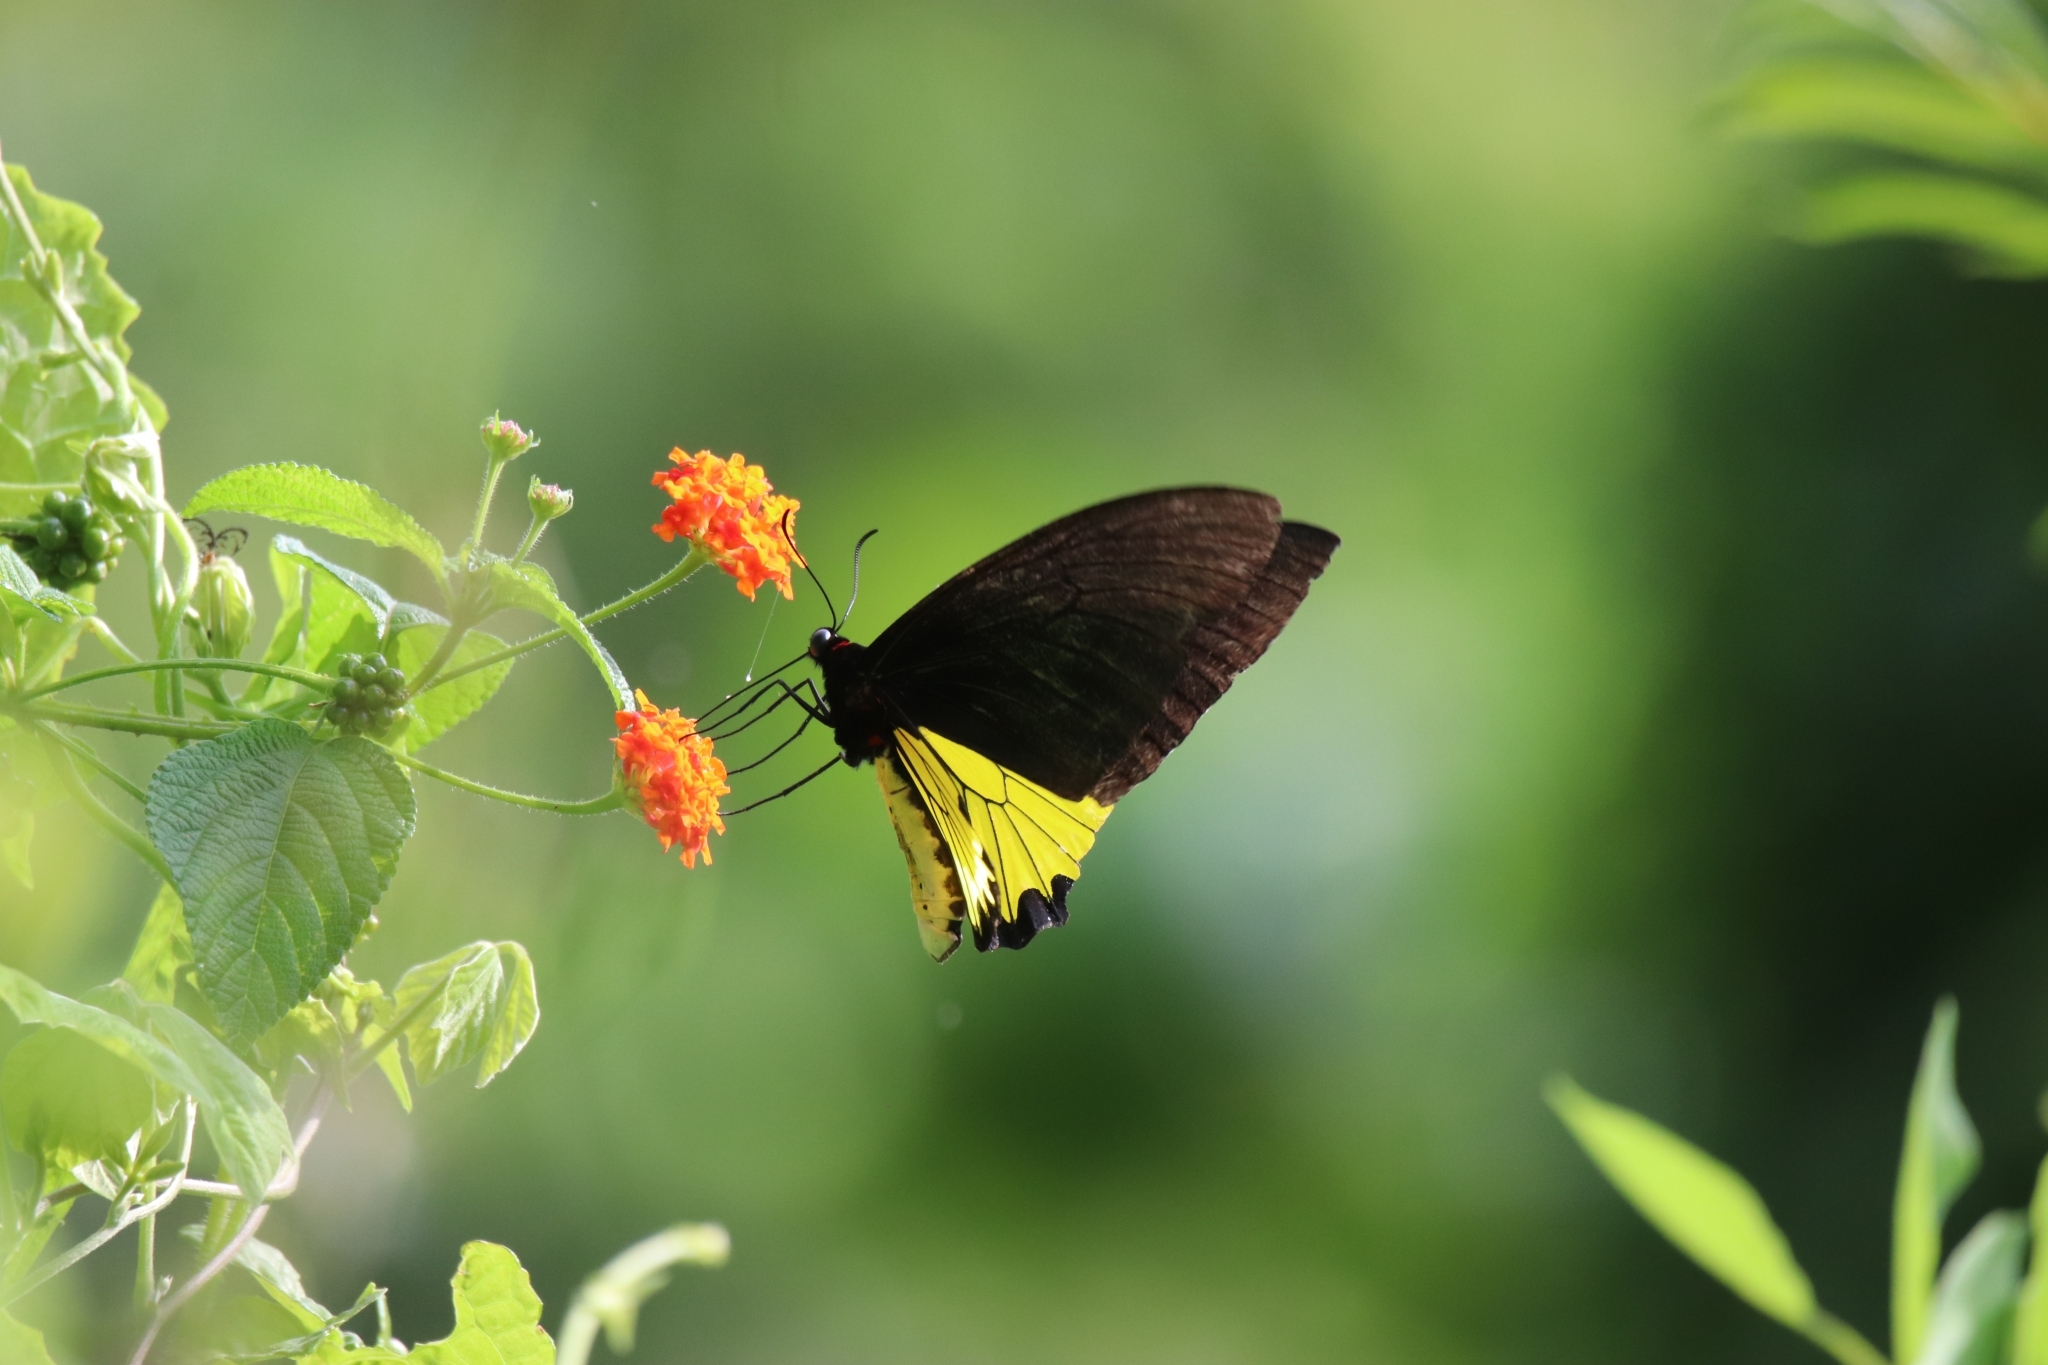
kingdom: Animalia
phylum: Arthropoda
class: Insecta
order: Lepidoptera
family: Papilionidae
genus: Troides
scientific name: Troides helena
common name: Common birdwing
